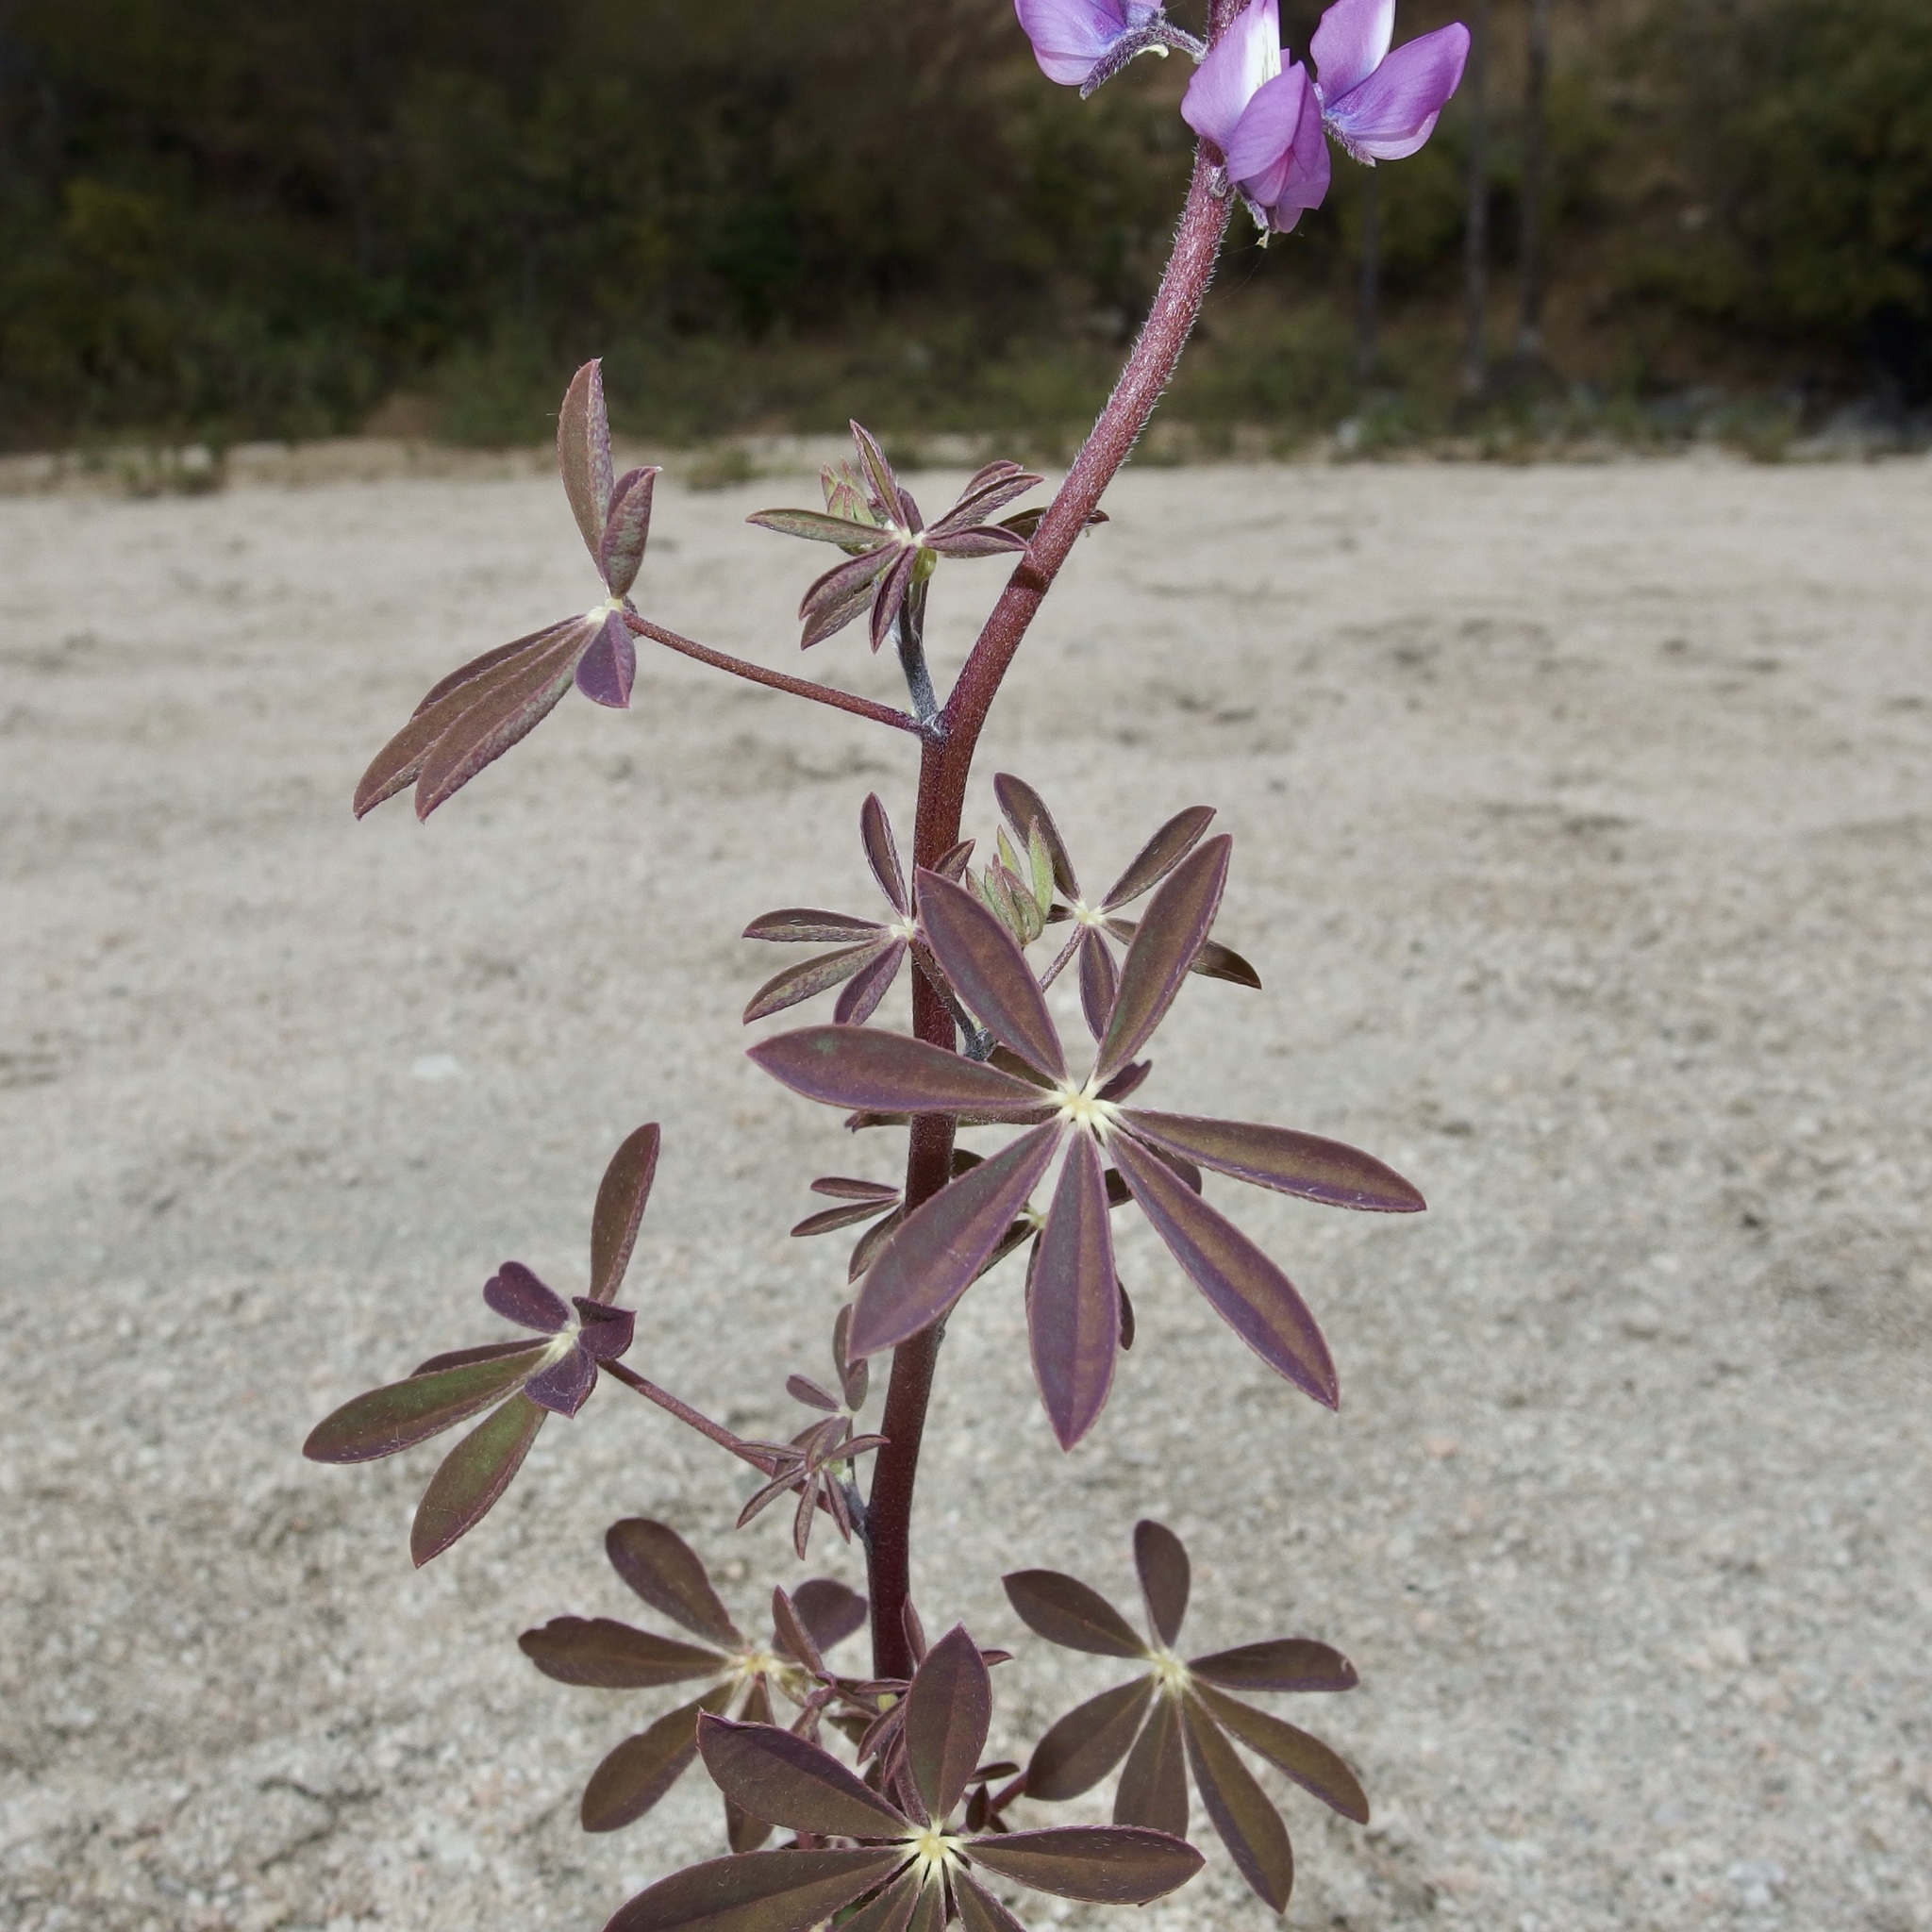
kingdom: Plantae
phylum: Tracheophyta
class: Magnoliopsida
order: Fabales
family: Fabaceae
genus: Lupinus
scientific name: Lupinus arizonicus
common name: Arizona lupine
